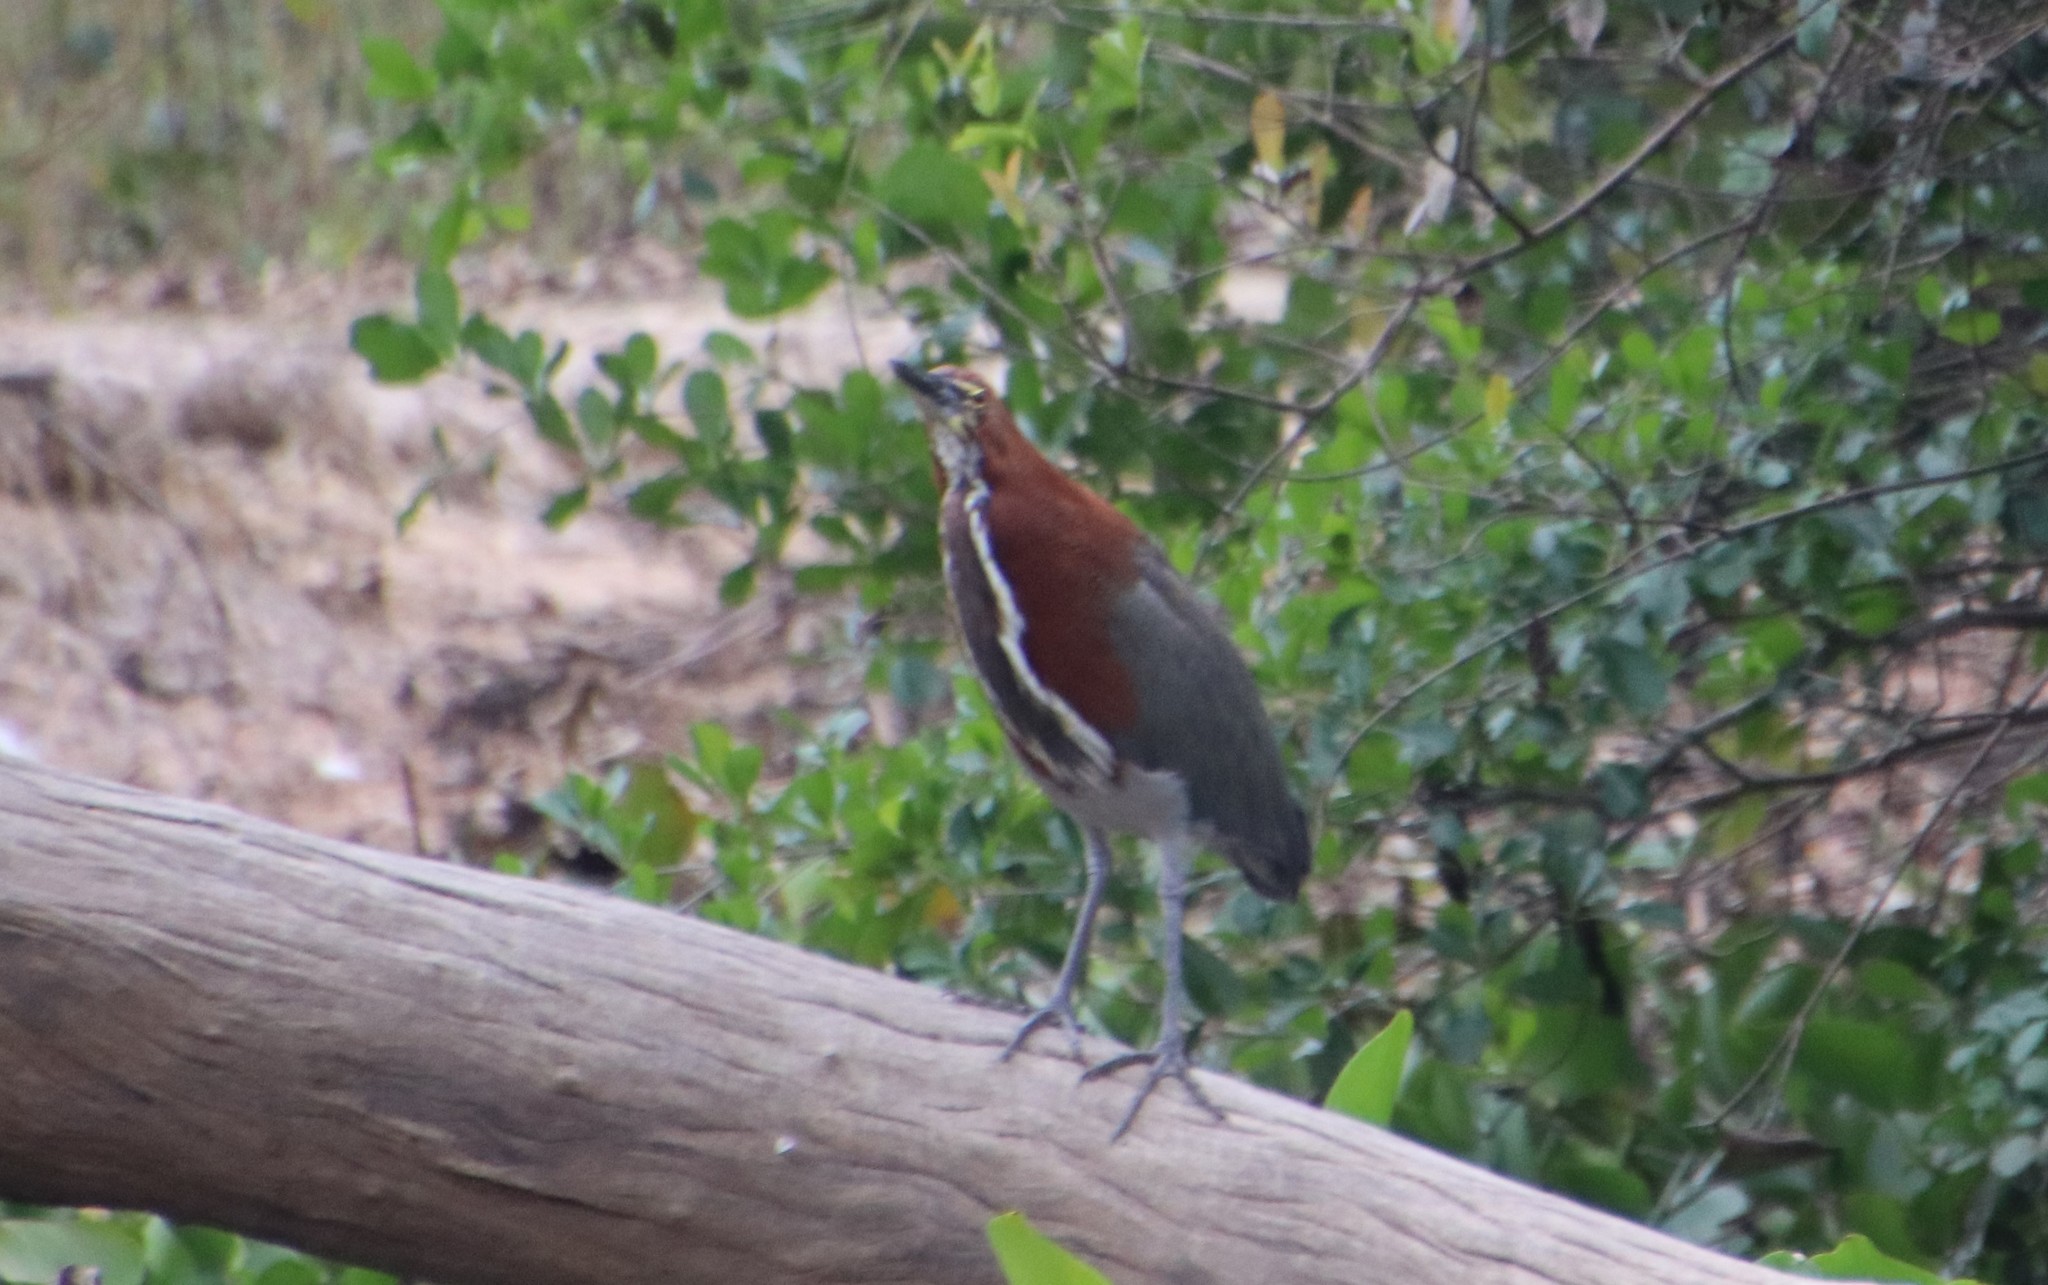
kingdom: Animalia
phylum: Chordata
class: Aves
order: Pelecaniformes
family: Ardeidae
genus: Tigrisoma
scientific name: Tigrisoma lineatum
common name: Rufescent tiger-heron
